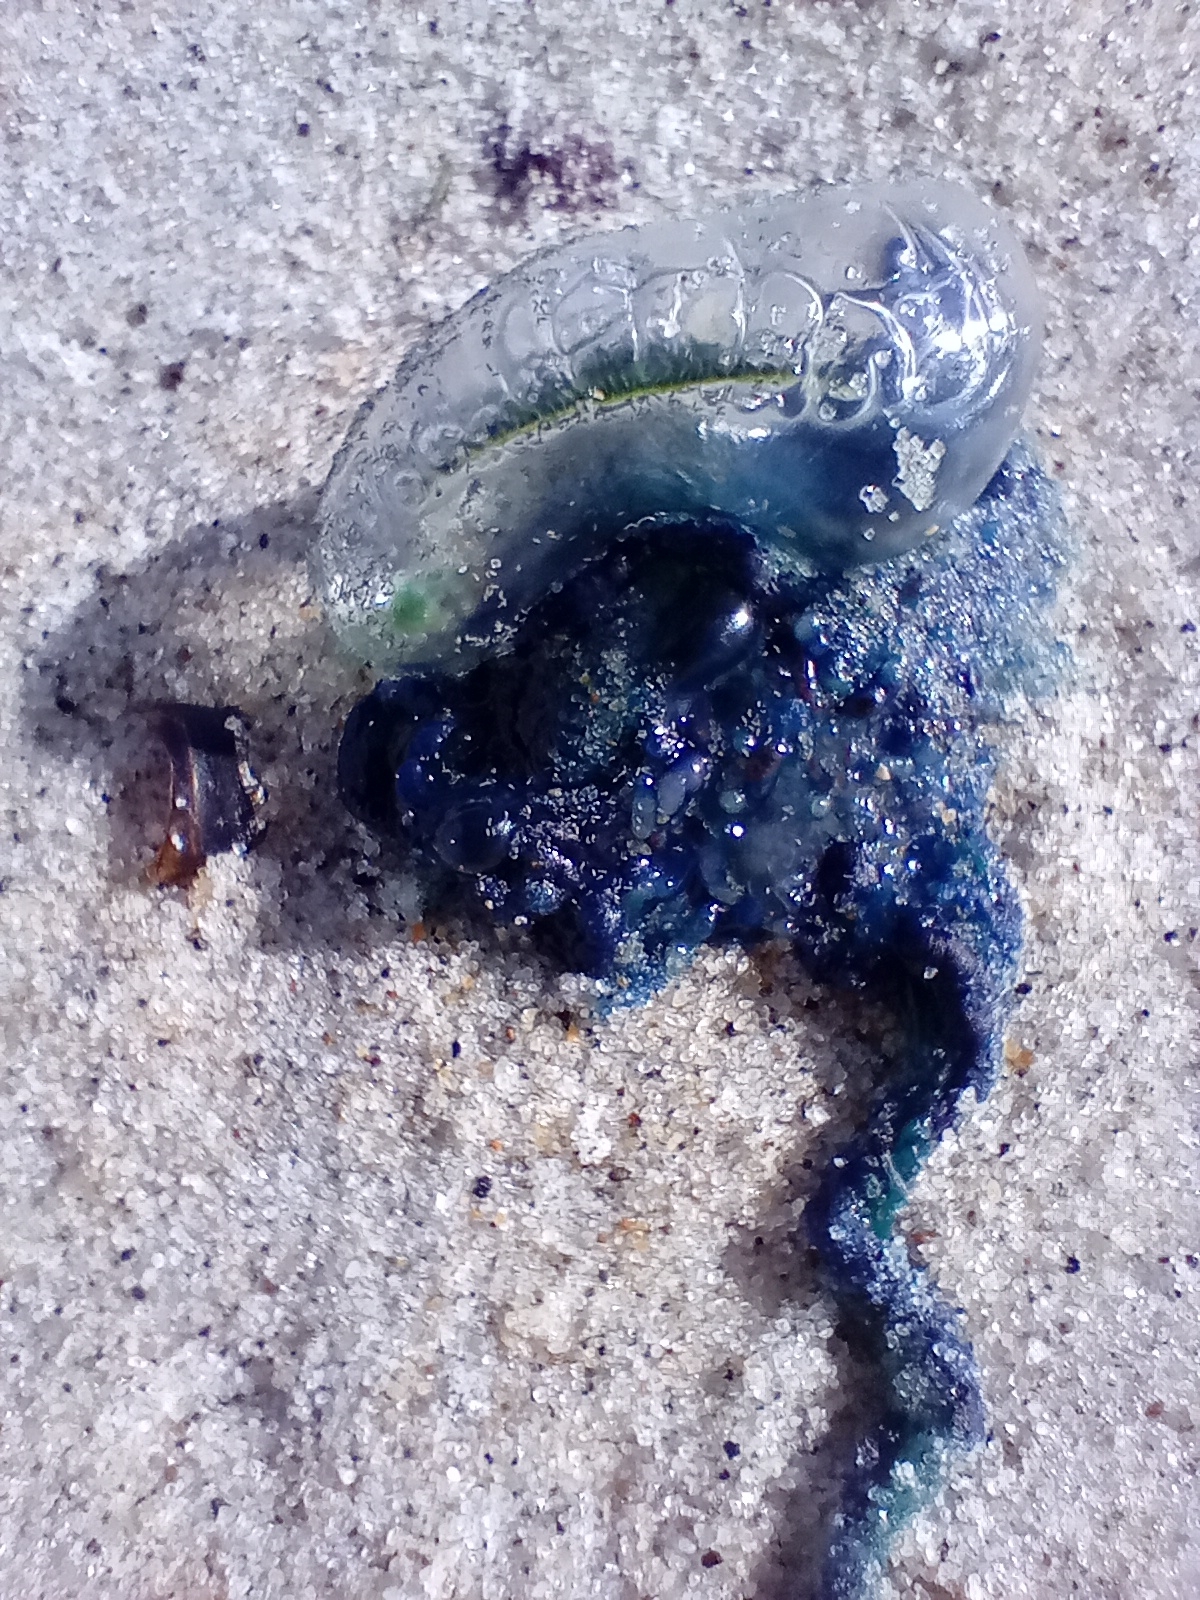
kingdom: Animalia
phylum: Cnidaria
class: Hydrozoa
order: Siphonophorae
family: Physaliidae
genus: Physalia
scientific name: Physalia physalis
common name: Portuguese man-of-war
